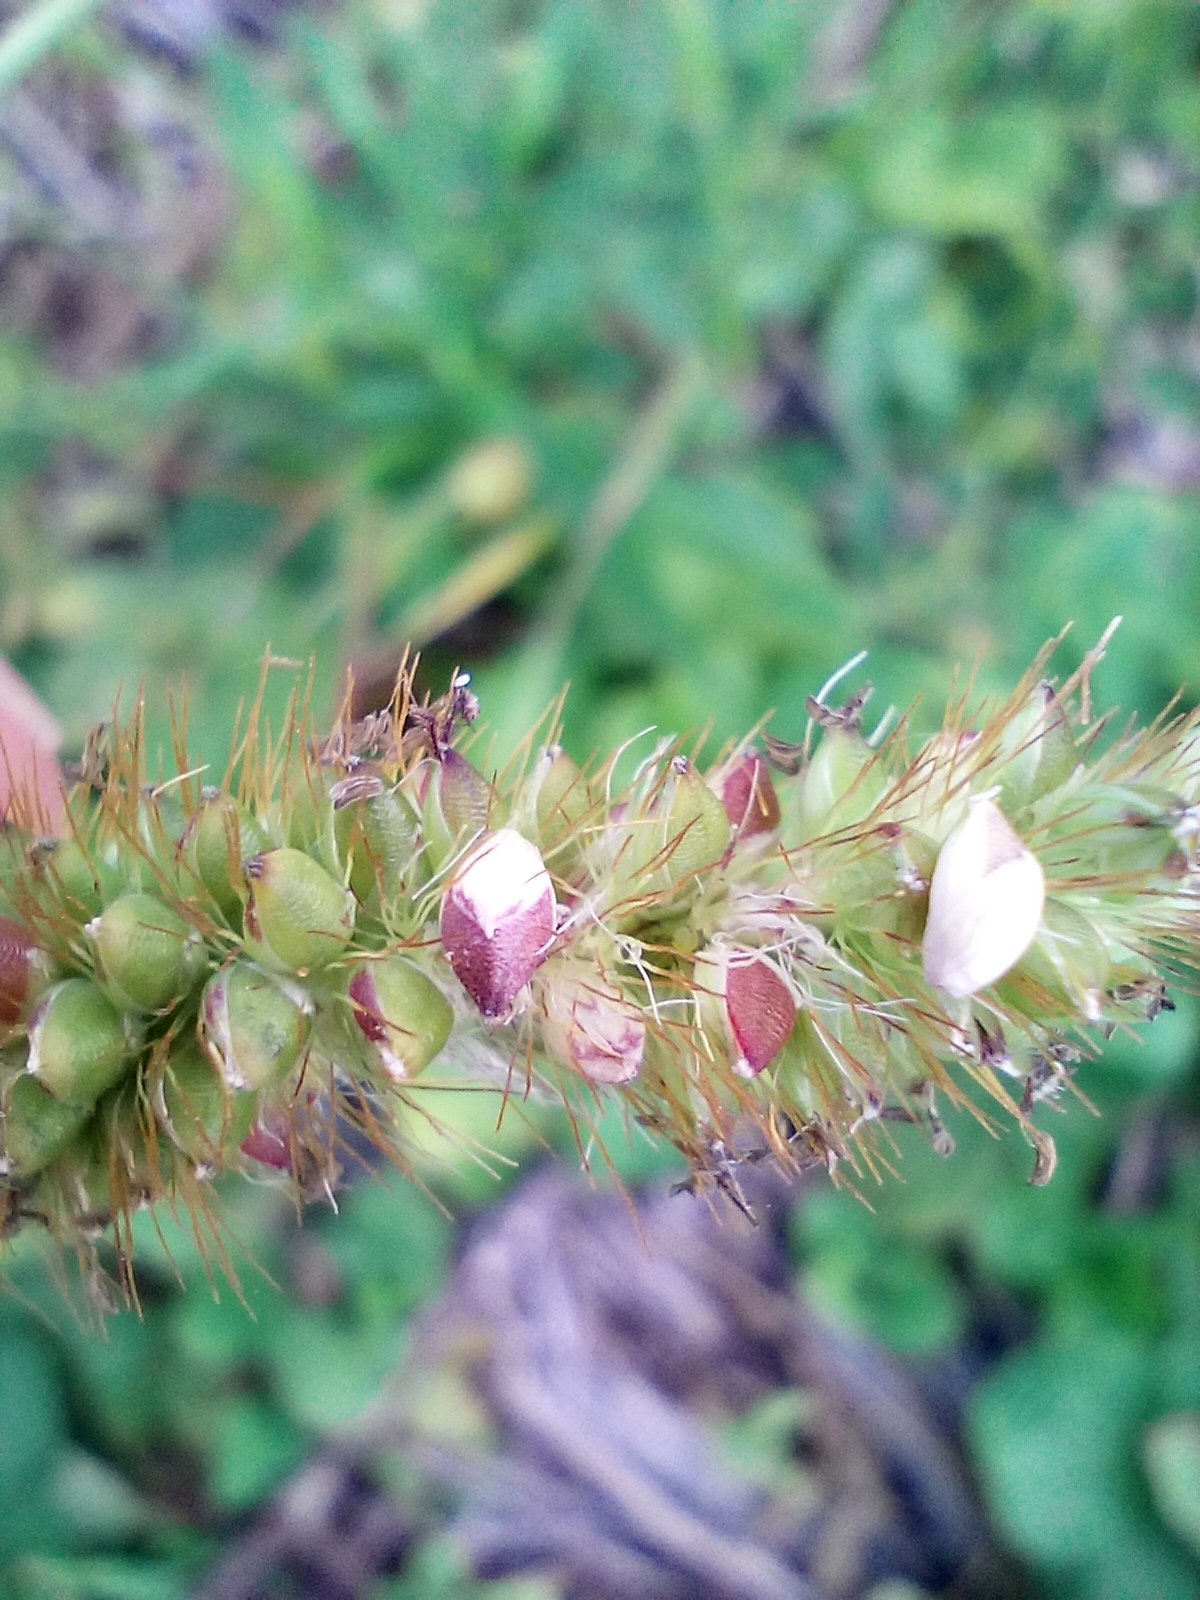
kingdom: Plantae
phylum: Tracheophyta
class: Liliopsida
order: Poales
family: Poaceae
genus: Setaria
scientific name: Setaria pumila
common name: Yellow bristle-grass
